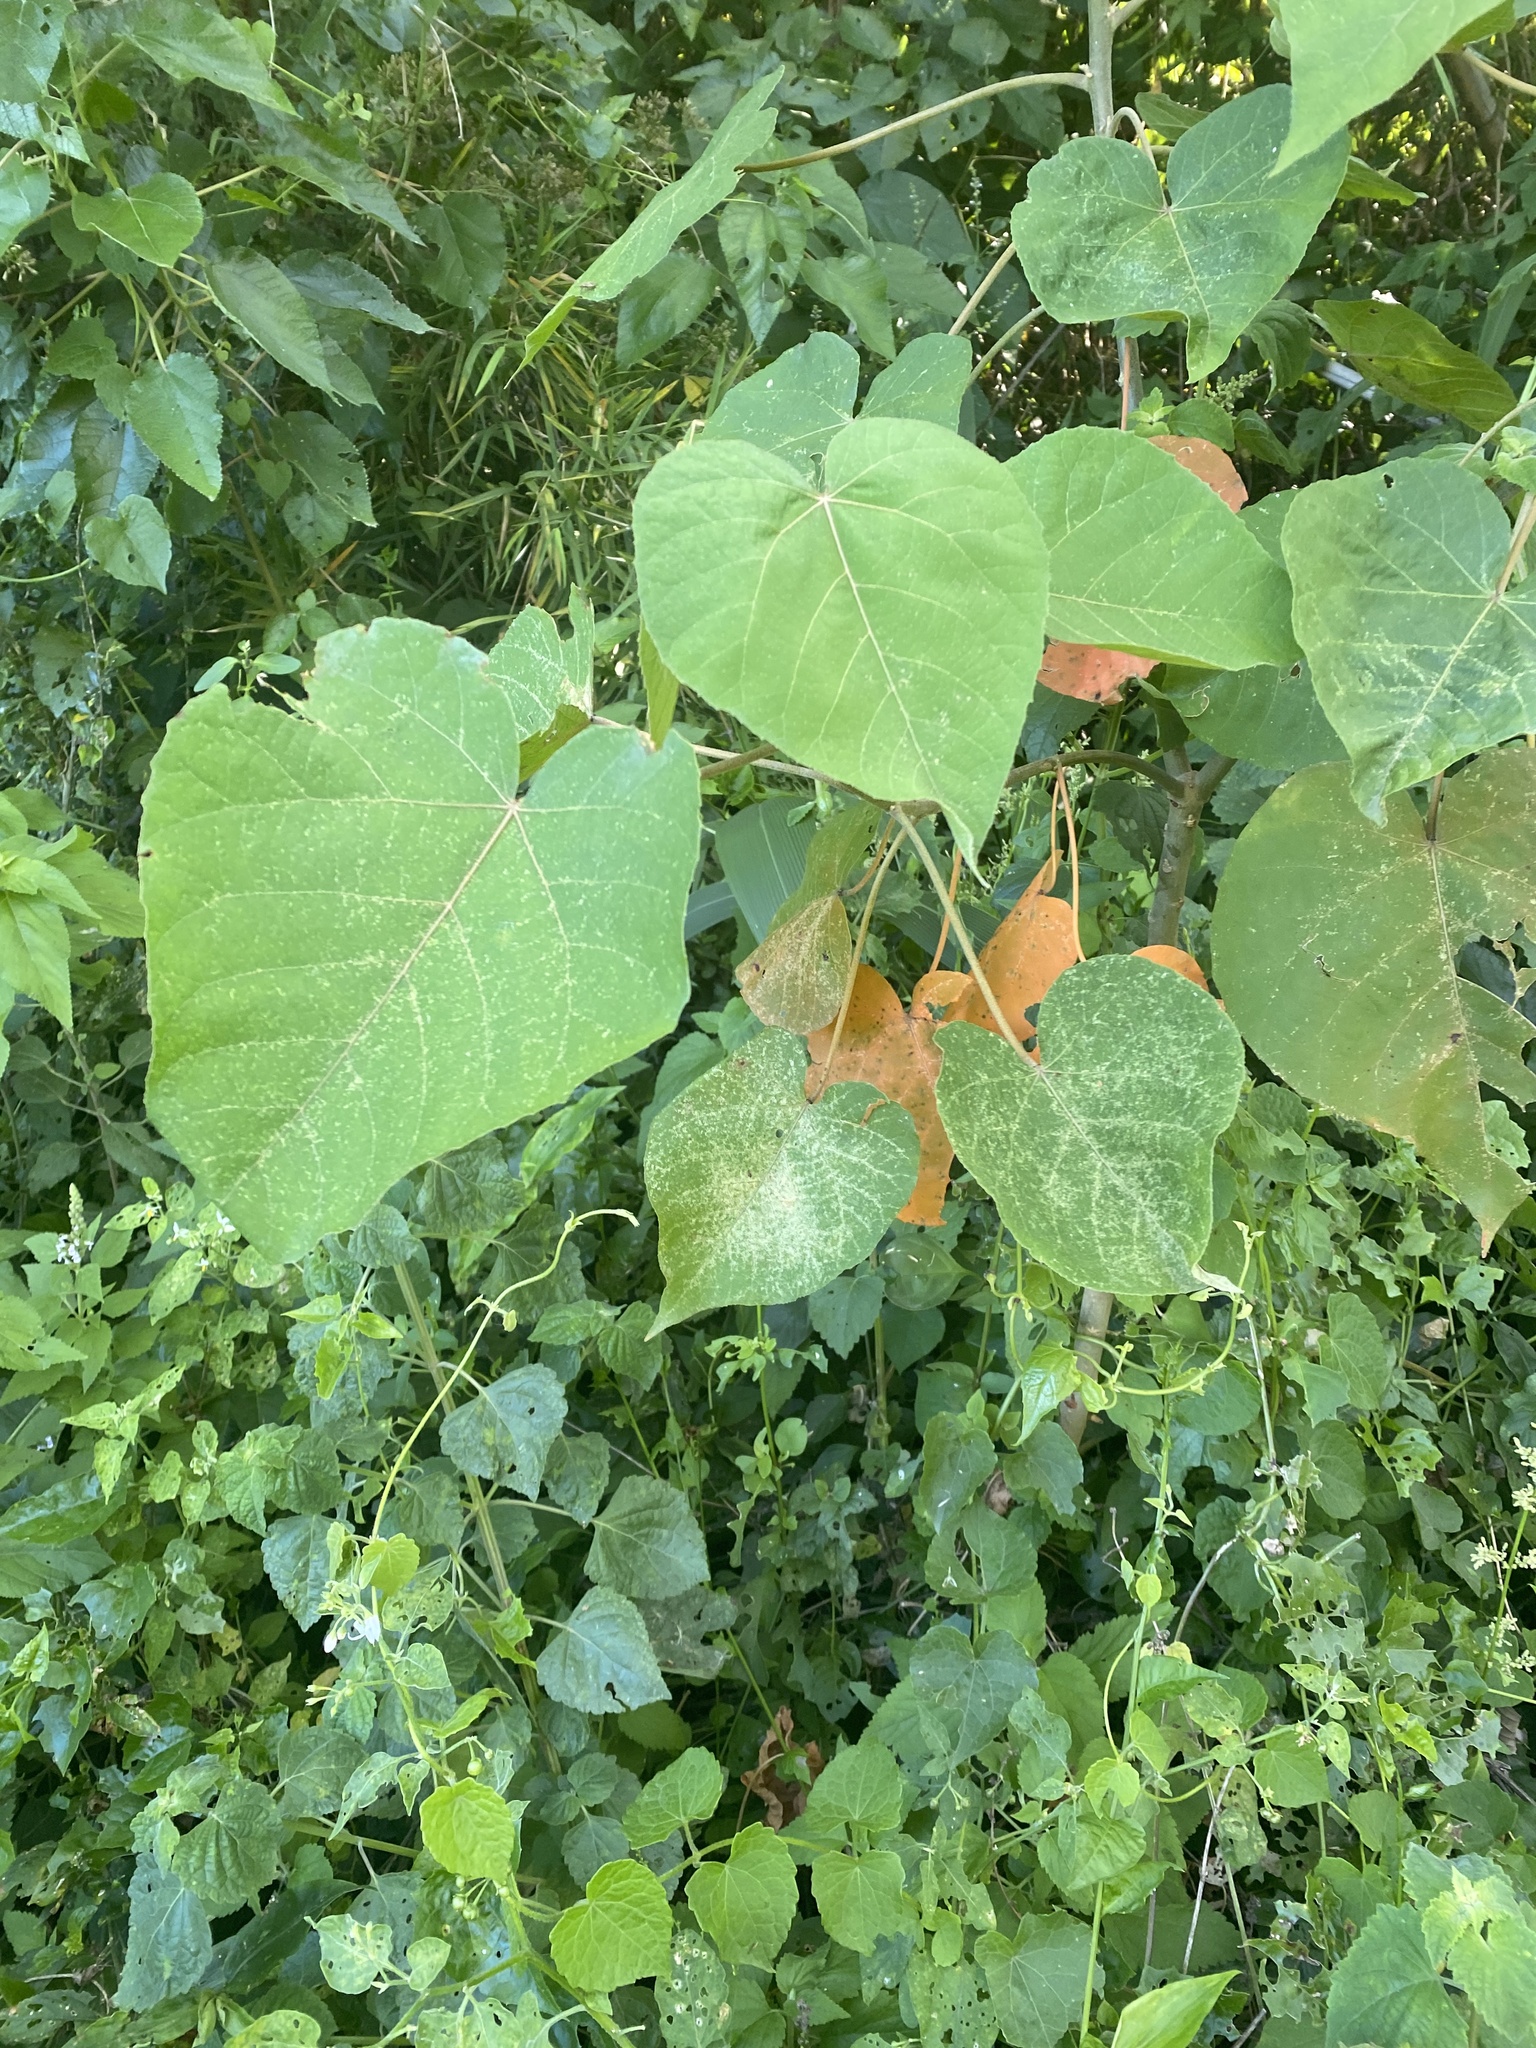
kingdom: Plantae
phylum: Tracheophyta
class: Magnoliopsida
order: Malpighiales
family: Euphorbiaceae
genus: Croton
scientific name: Croton urucurana
